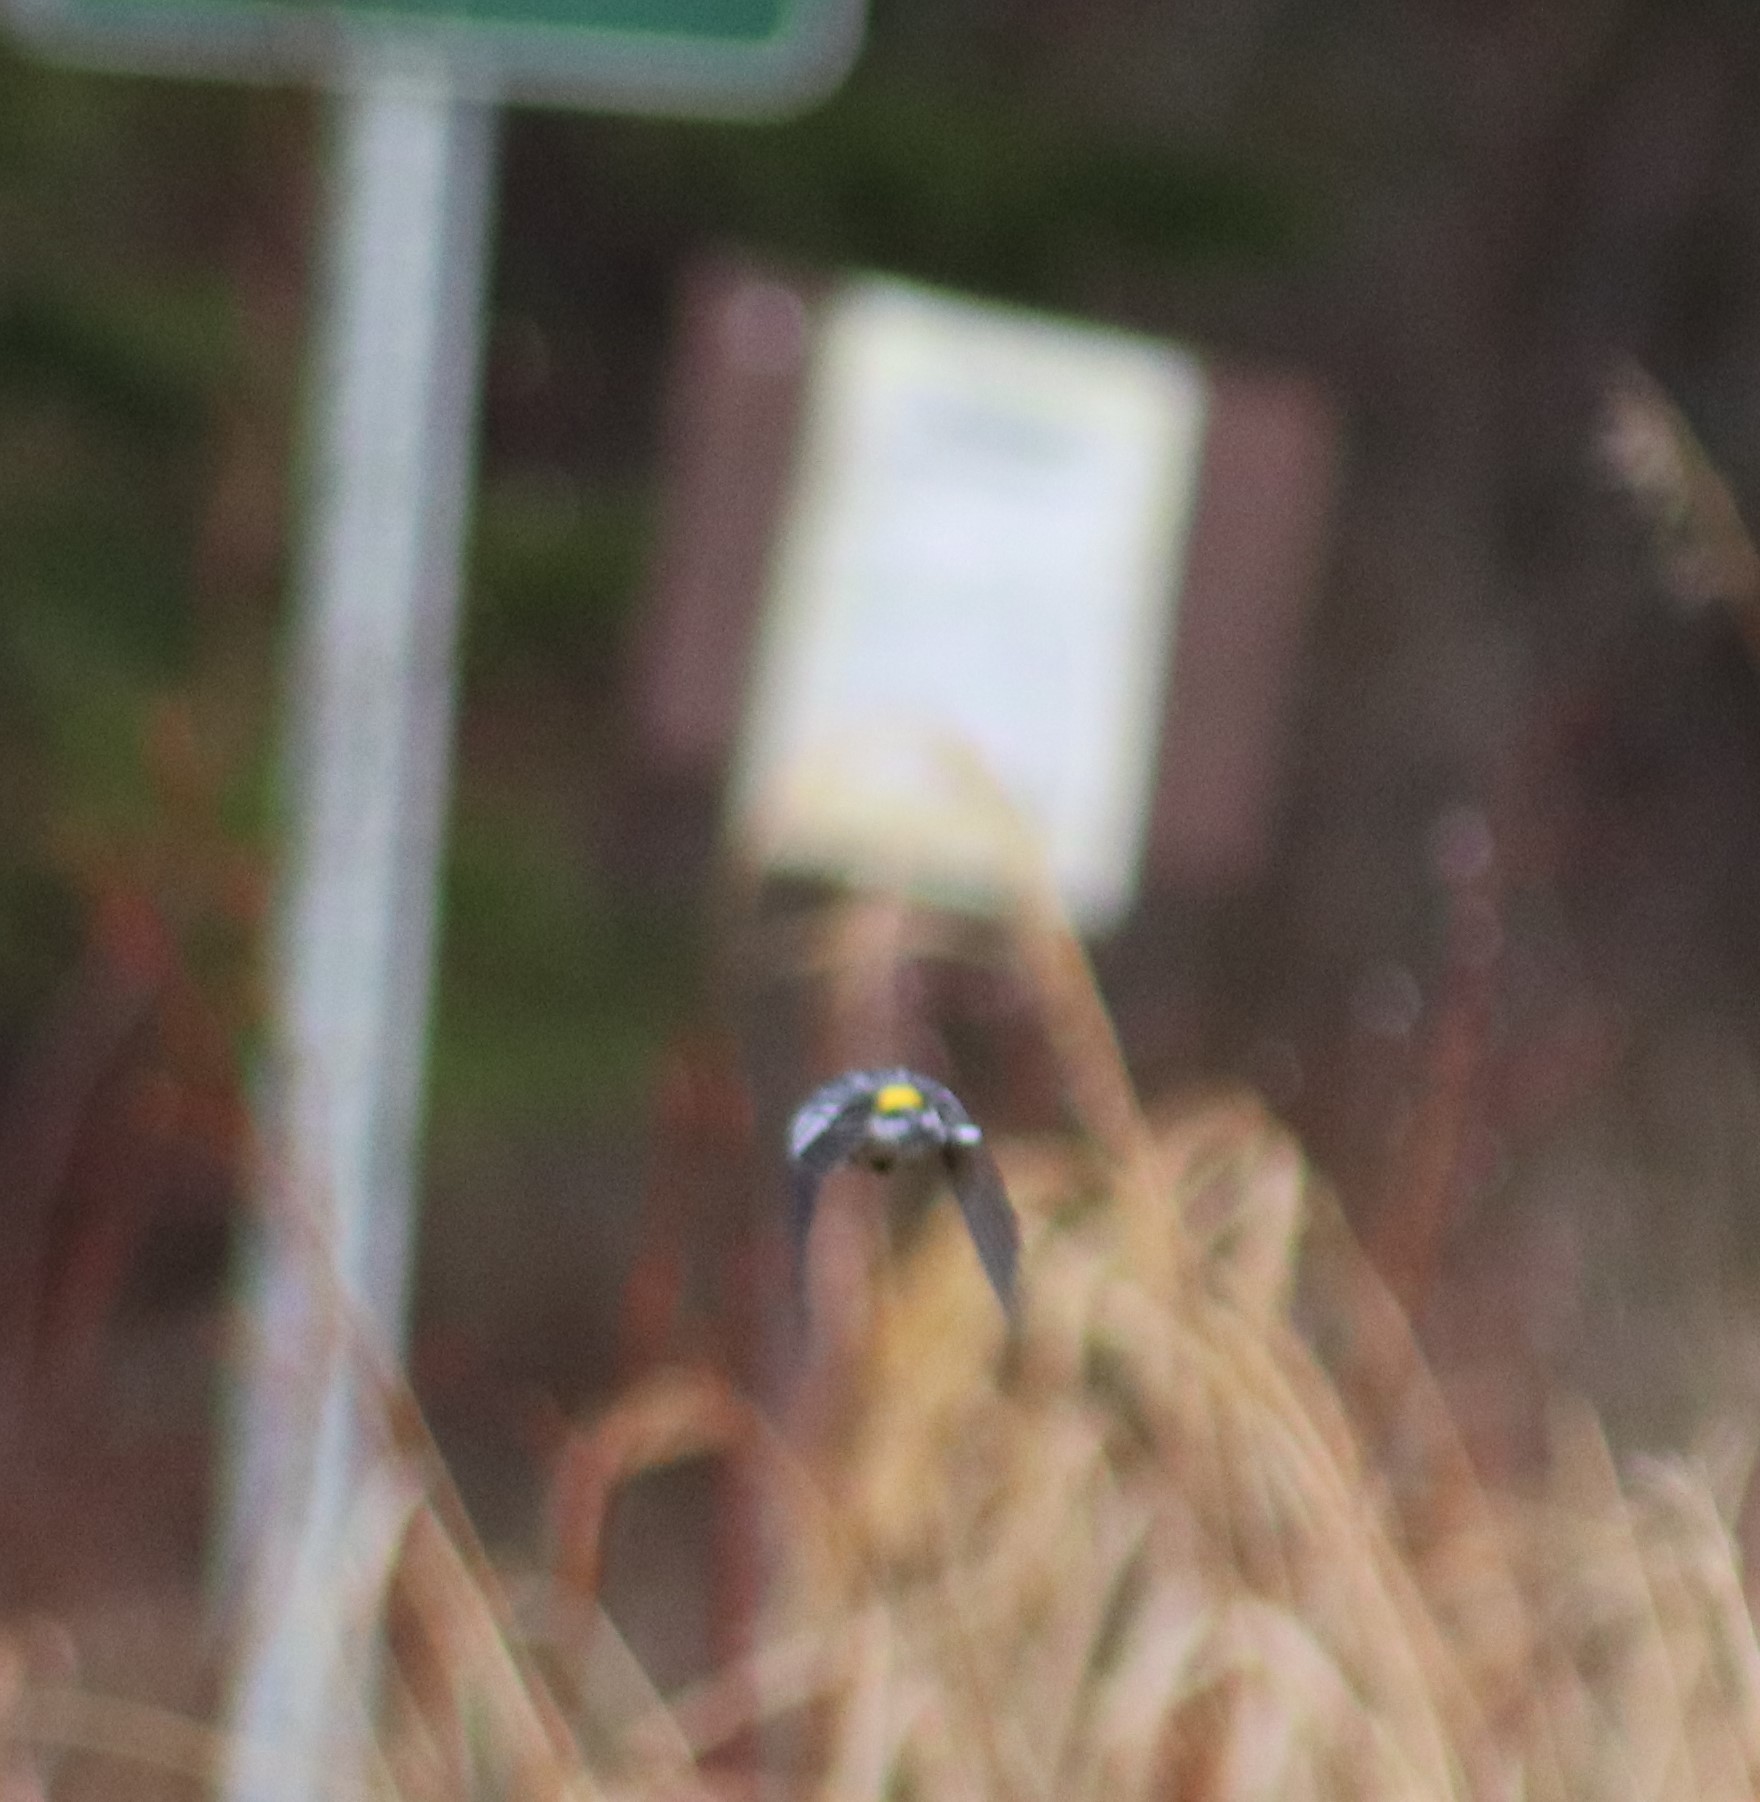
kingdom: Animalia
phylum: Chordata
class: Aves
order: Passeriformes
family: Parulidae
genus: Setophaga
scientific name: Setophaga coronata
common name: Myrtle warbler
